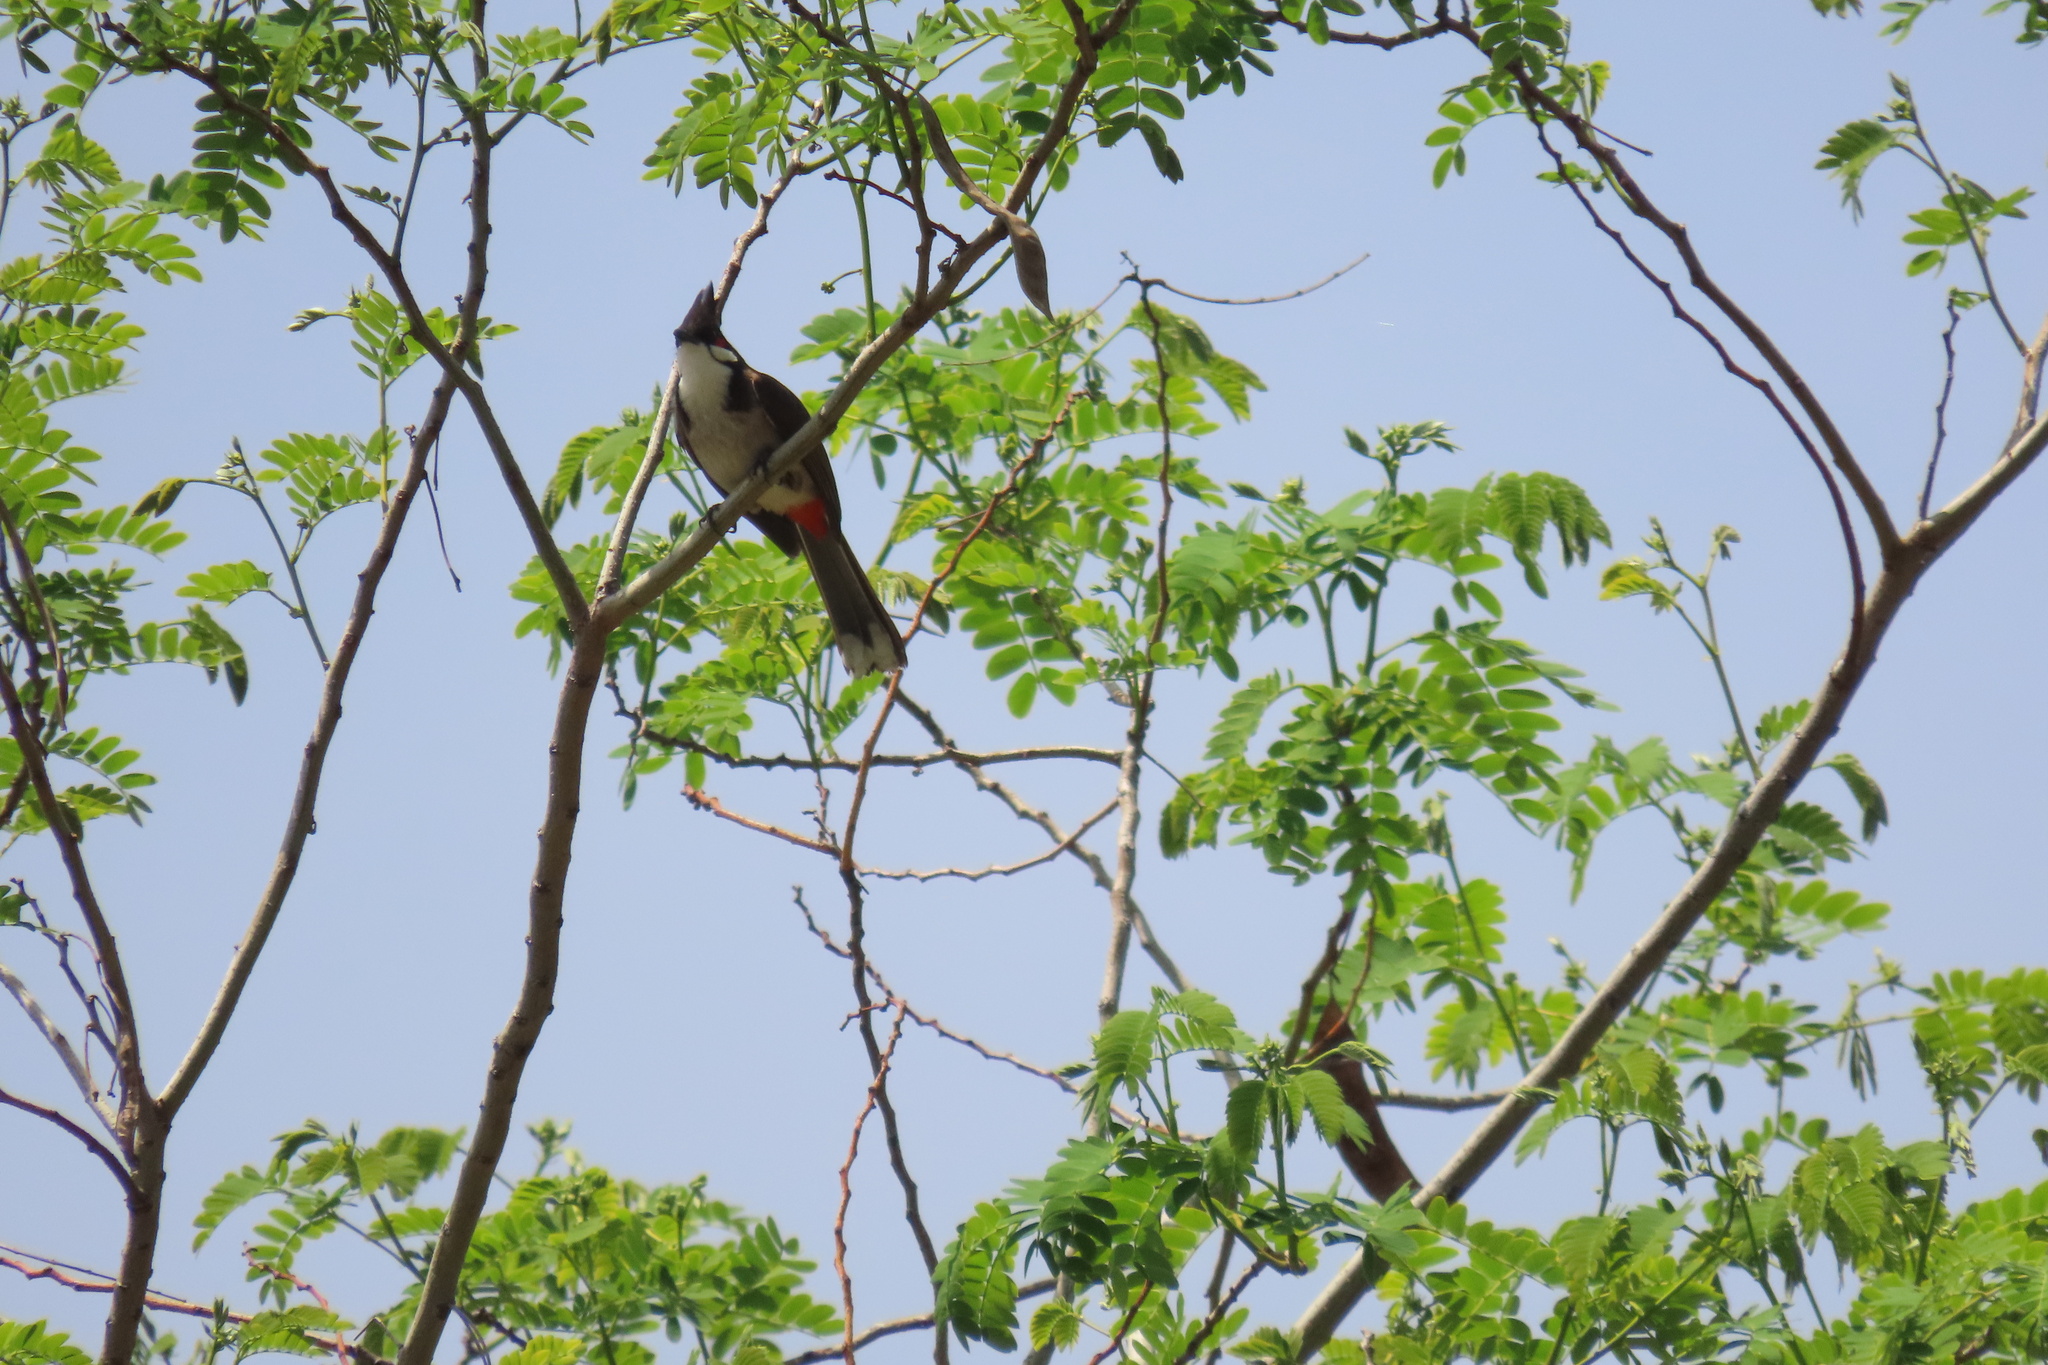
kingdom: Animalia
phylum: Chordata
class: Aves
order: Passeriformes
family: Pycnonotidae
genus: Pycnonotus
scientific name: Pycnonotus jocosus
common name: Red-whiskered bulbul
